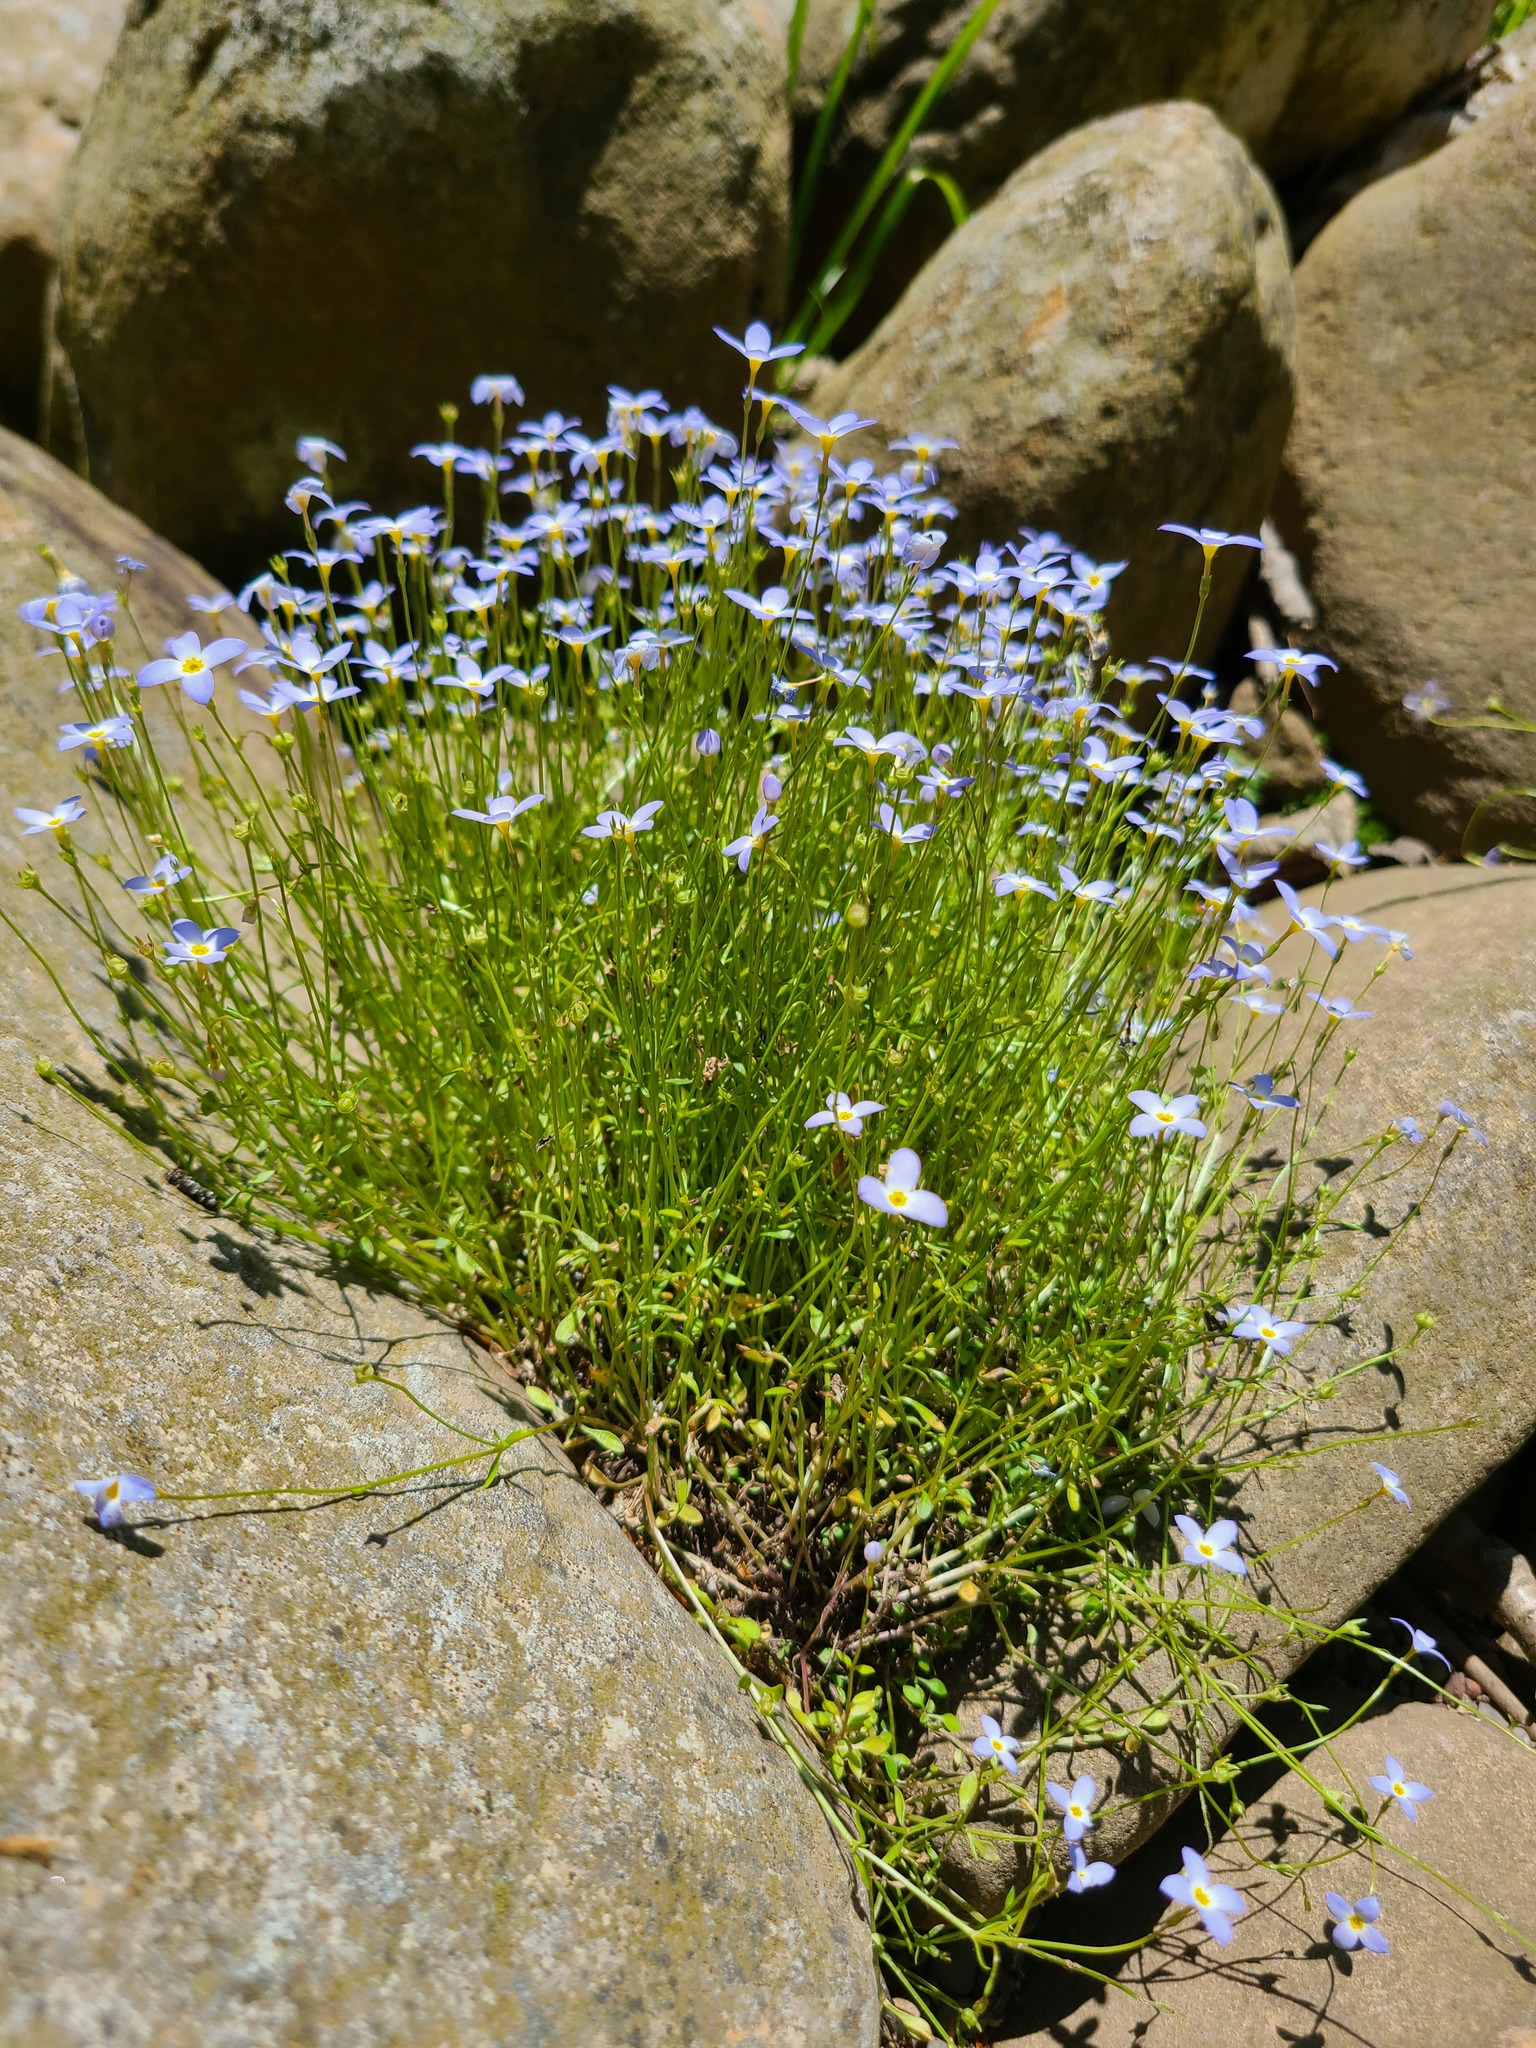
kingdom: Plantae
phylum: Tracheophyta
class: Magnoliopsida
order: Gentianales
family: Rubiaceae
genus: Houstonia
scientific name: Houstonia caerulea
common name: Bluets
